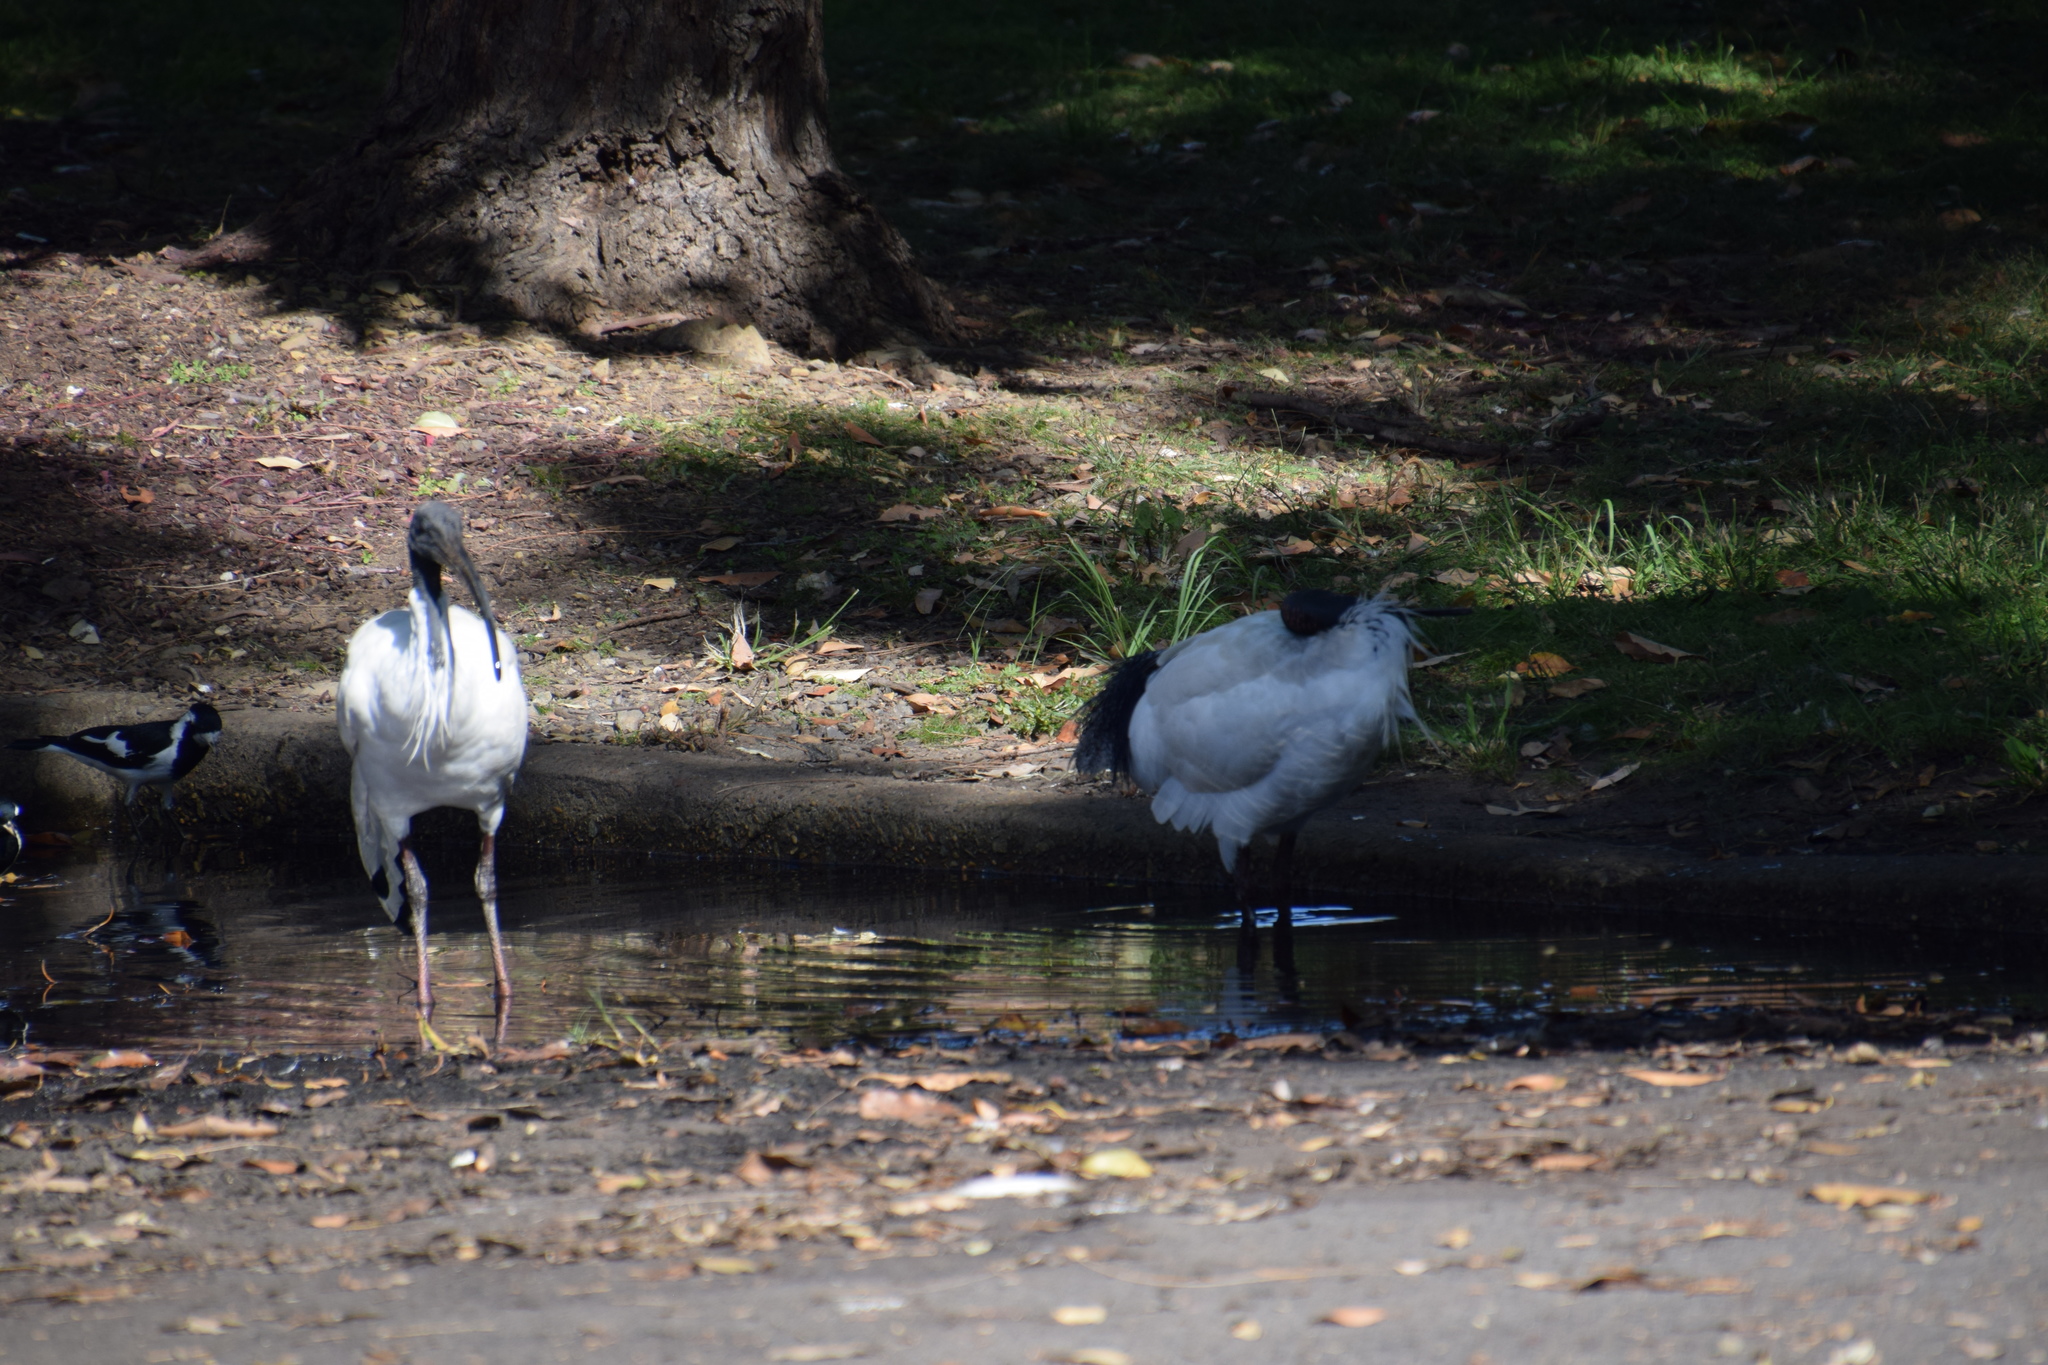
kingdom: Animalia
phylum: Chordata
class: Aves
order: Pelecaniformes
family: Threskiornithidae
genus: Threskiornis
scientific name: Threskiornis molucca
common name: Australian white ibis
